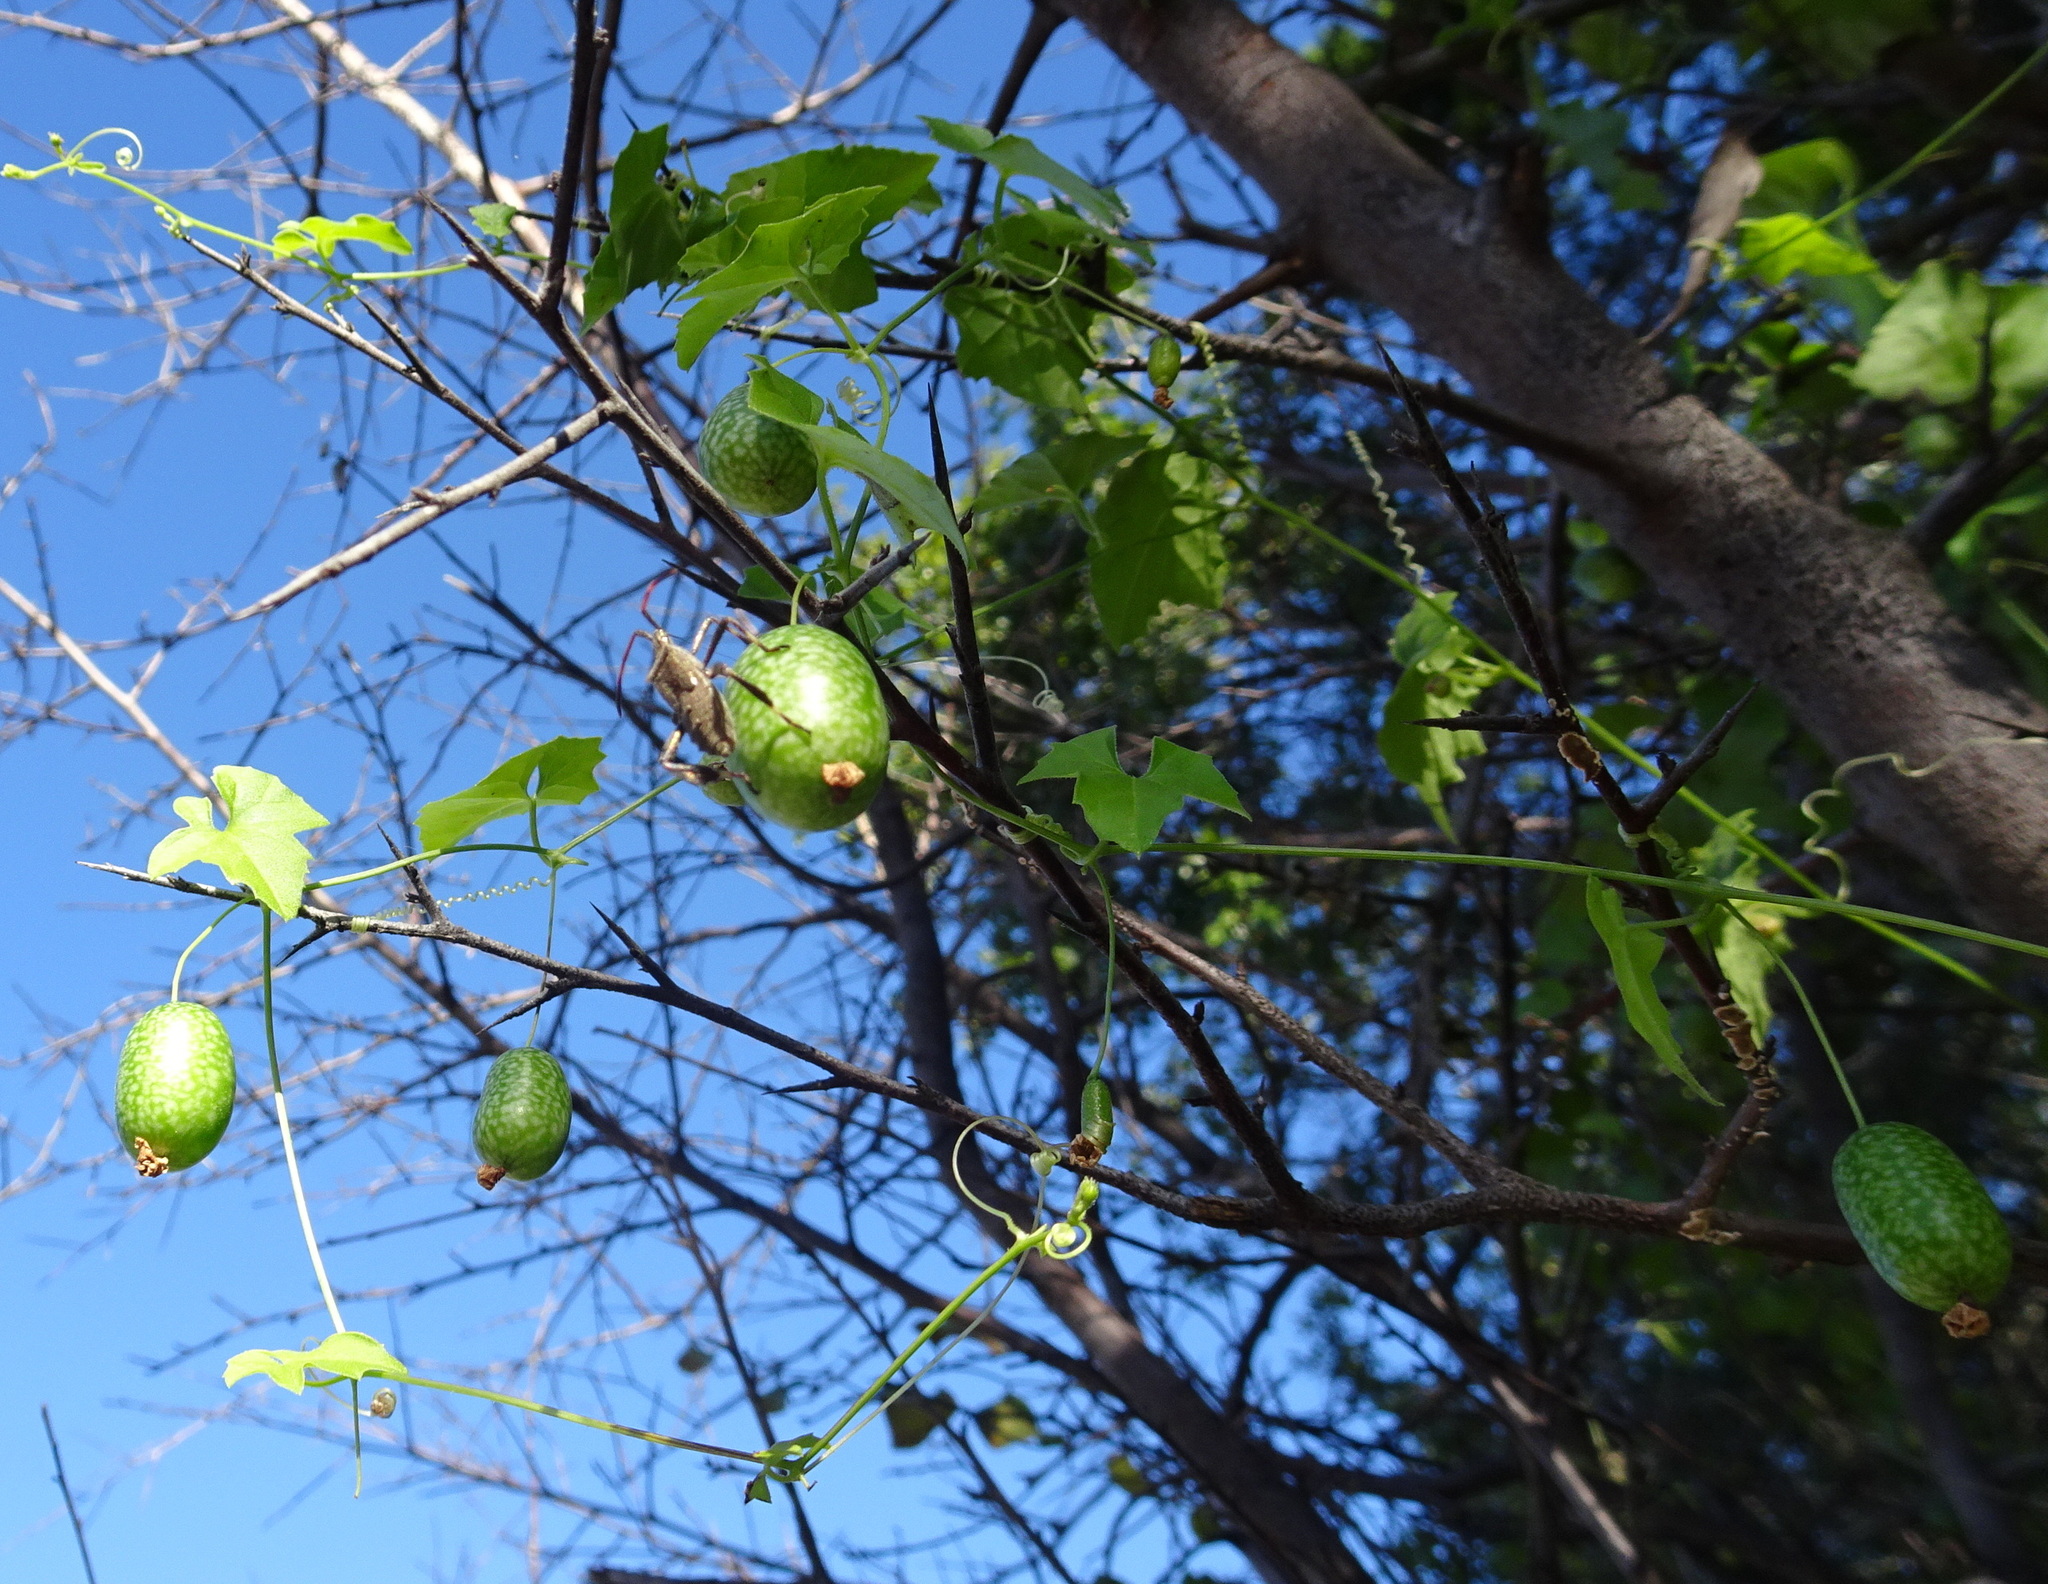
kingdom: Plantae
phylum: Tracheophyta
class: Magnoliopsida
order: Cucurbitales
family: Cucurbitaceae
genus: Melothria
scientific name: Melothria pendula
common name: Creeping-cucumber
